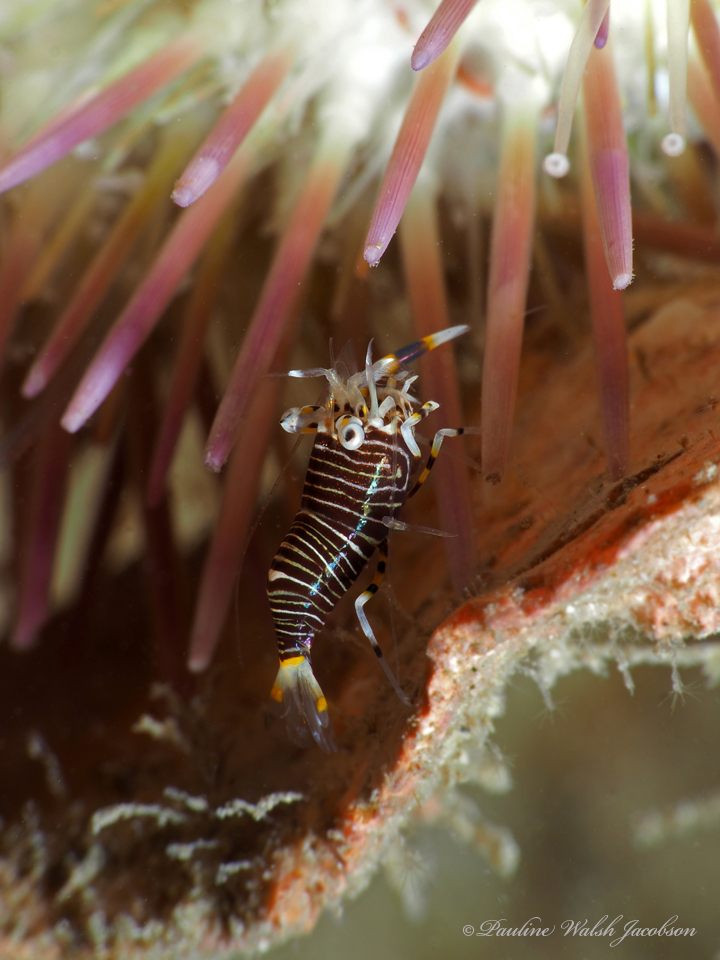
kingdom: Animalia
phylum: Arthropoda
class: Malacostraca
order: Decapoda
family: Palaemonidae
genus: Gnathophyllum
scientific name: Gnathophyllum americanum
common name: Bumblebee shrimp
